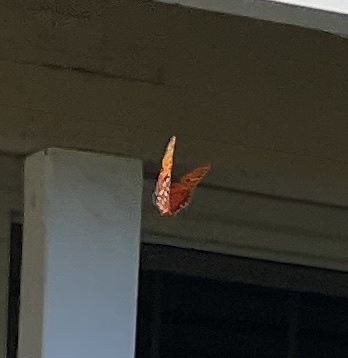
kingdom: Animalia
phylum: Arthropoda
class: Insecta
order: Lepidoptera
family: Nymphalidae
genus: Dione
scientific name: Dione vanillae
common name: Gulf fritillary
